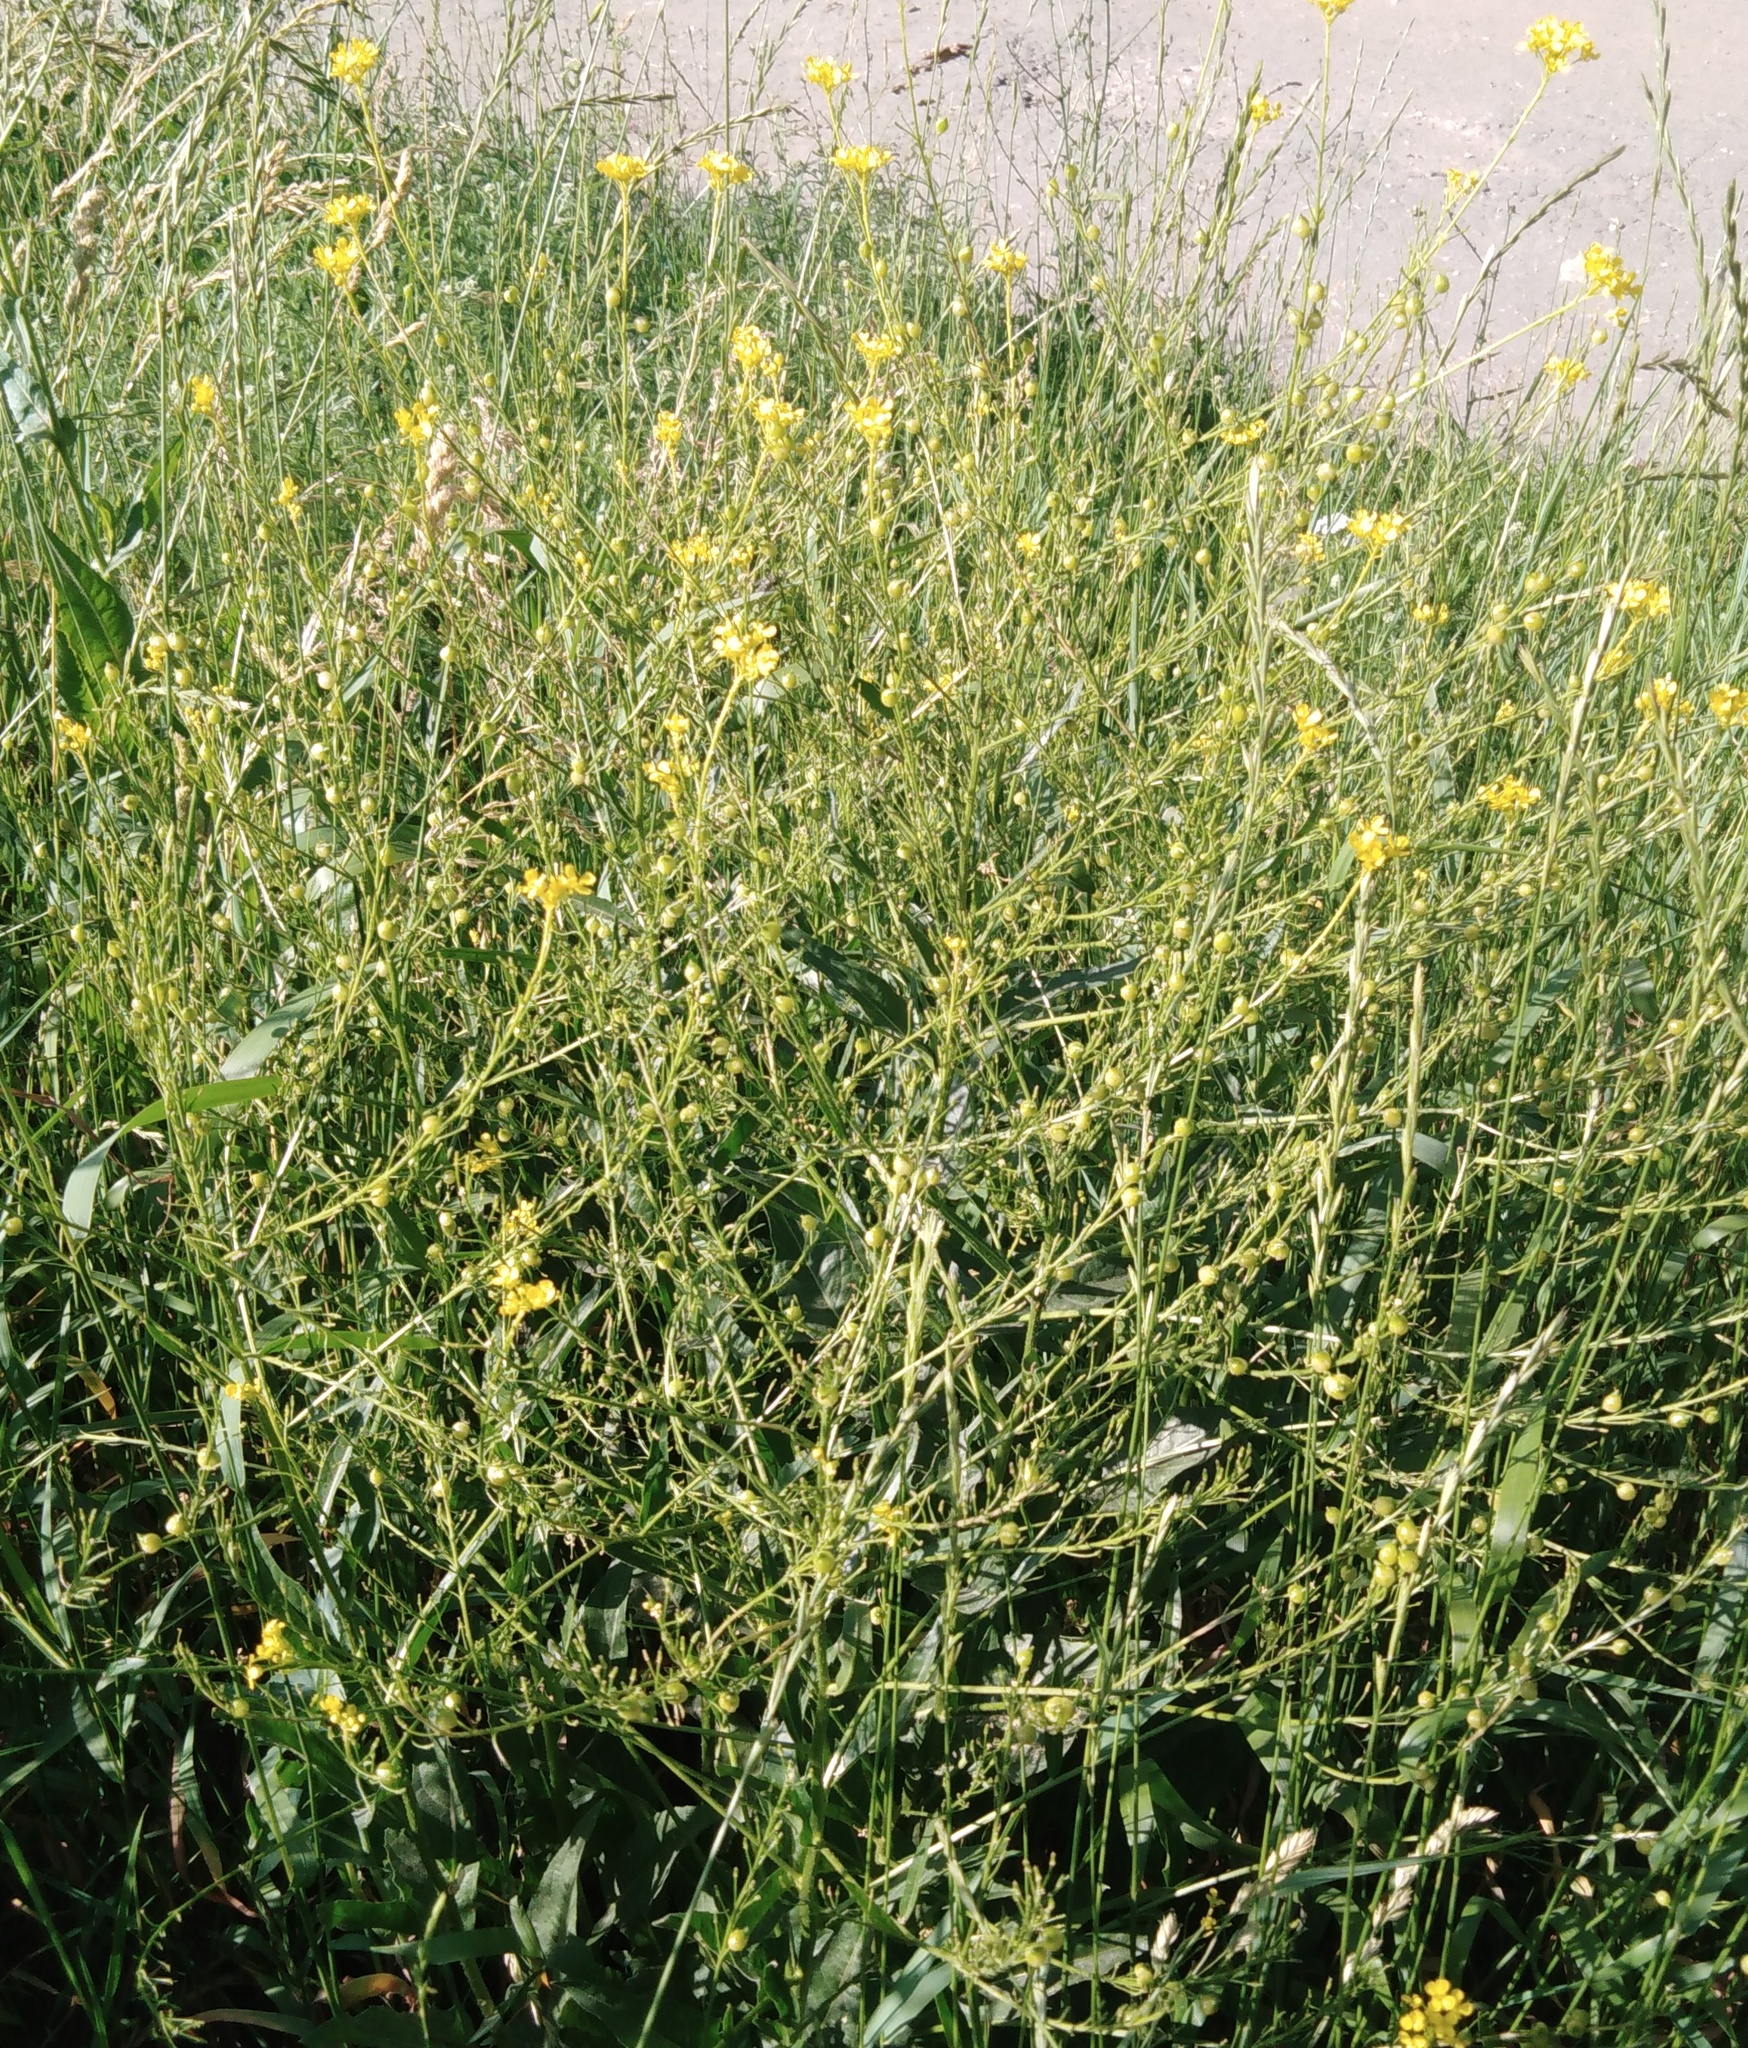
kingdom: Plantae
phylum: Tracheophyta
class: Magnoliopsida
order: Brassicales
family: Brassicaceae
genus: Bunias
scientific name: Bunias orientalis
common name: Warty-cabbage
